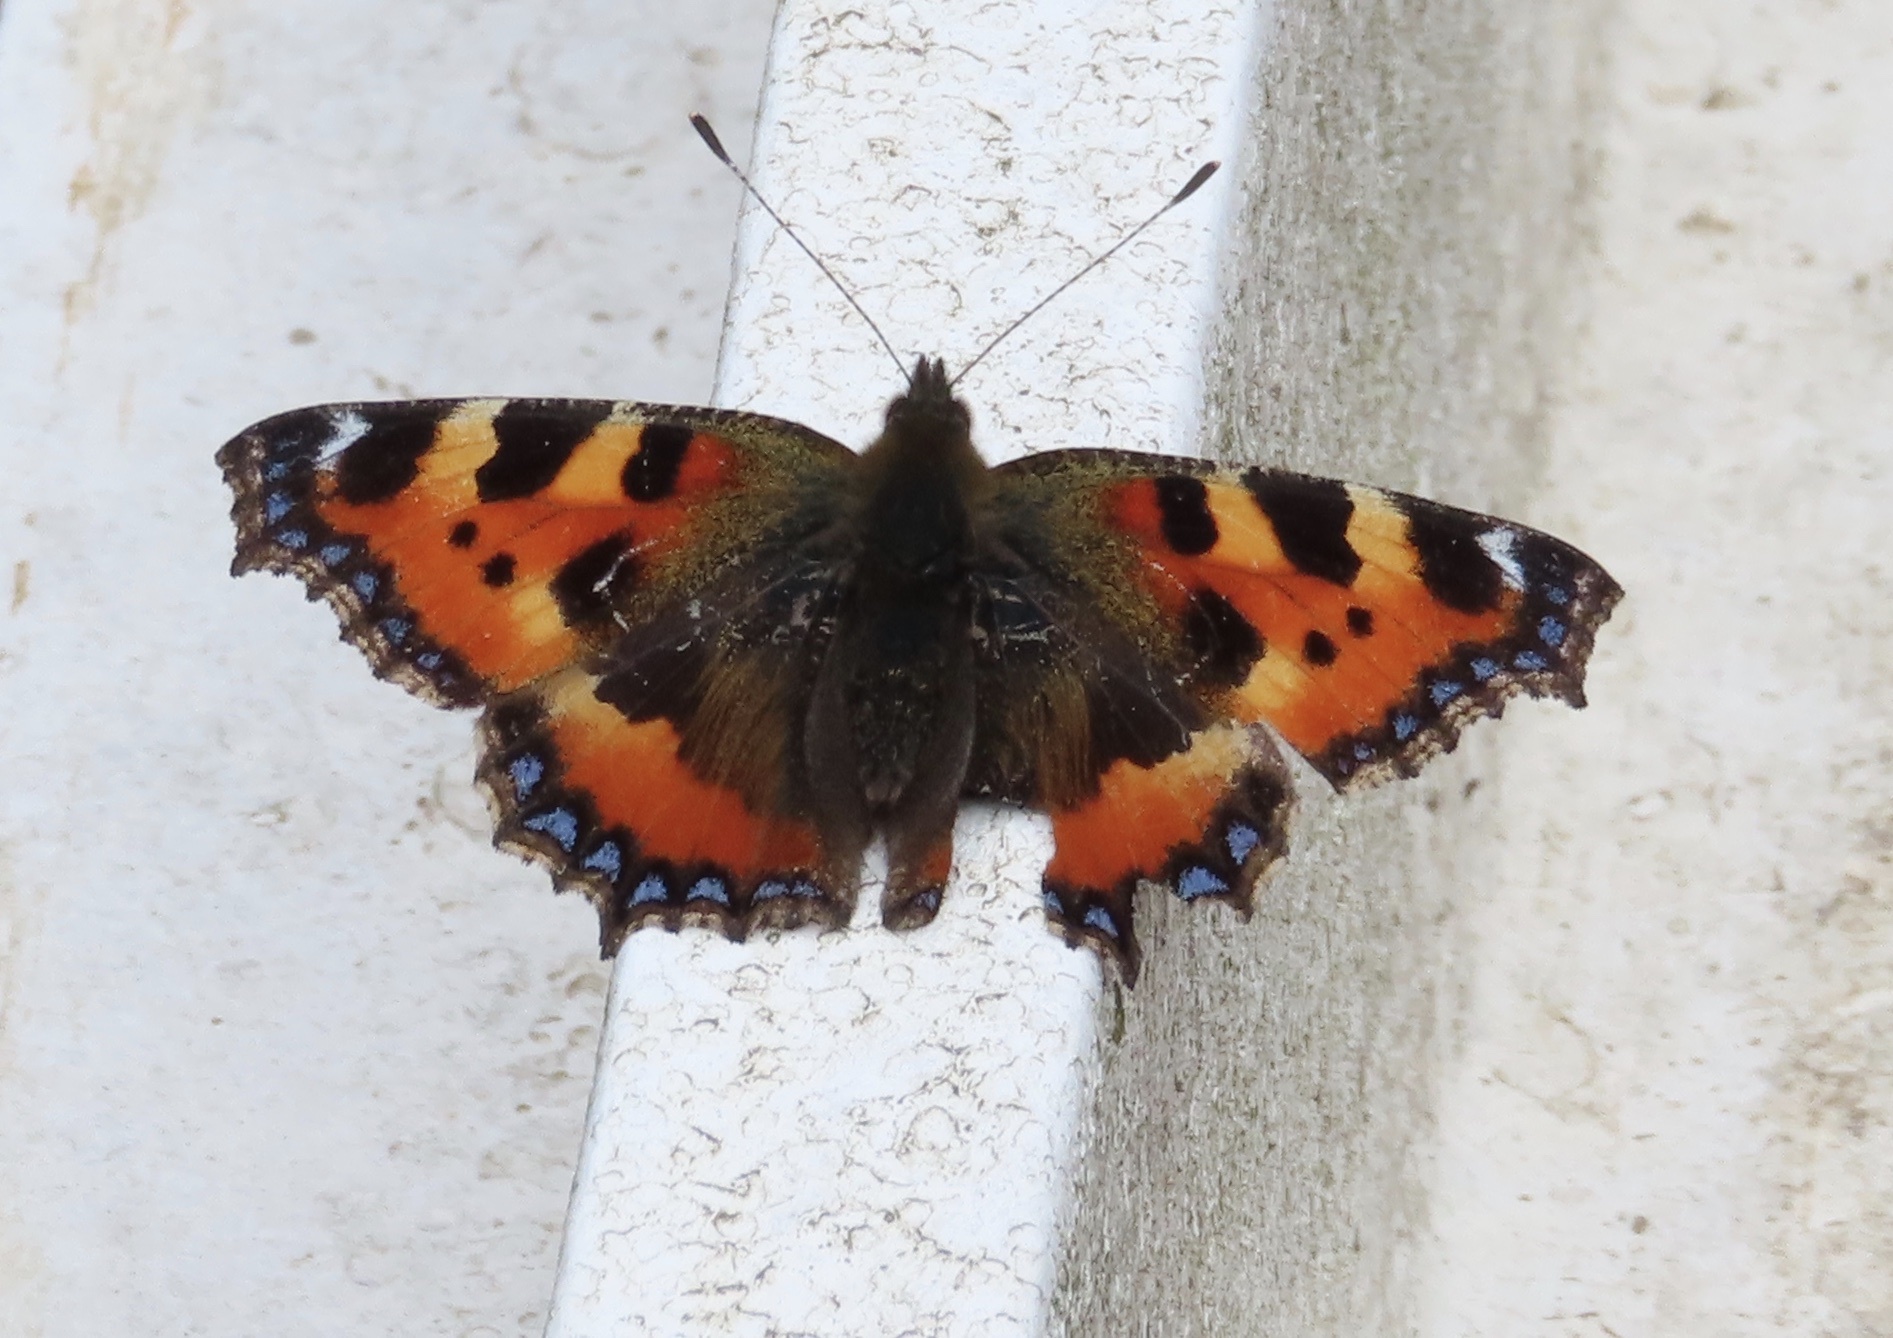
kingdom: Animalia
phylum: Arthropoda
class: Insecta
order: Lepidoptera
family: Nymphalidae
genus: Aglais
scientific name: Aglais urticae
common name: Small tortoiseshell
